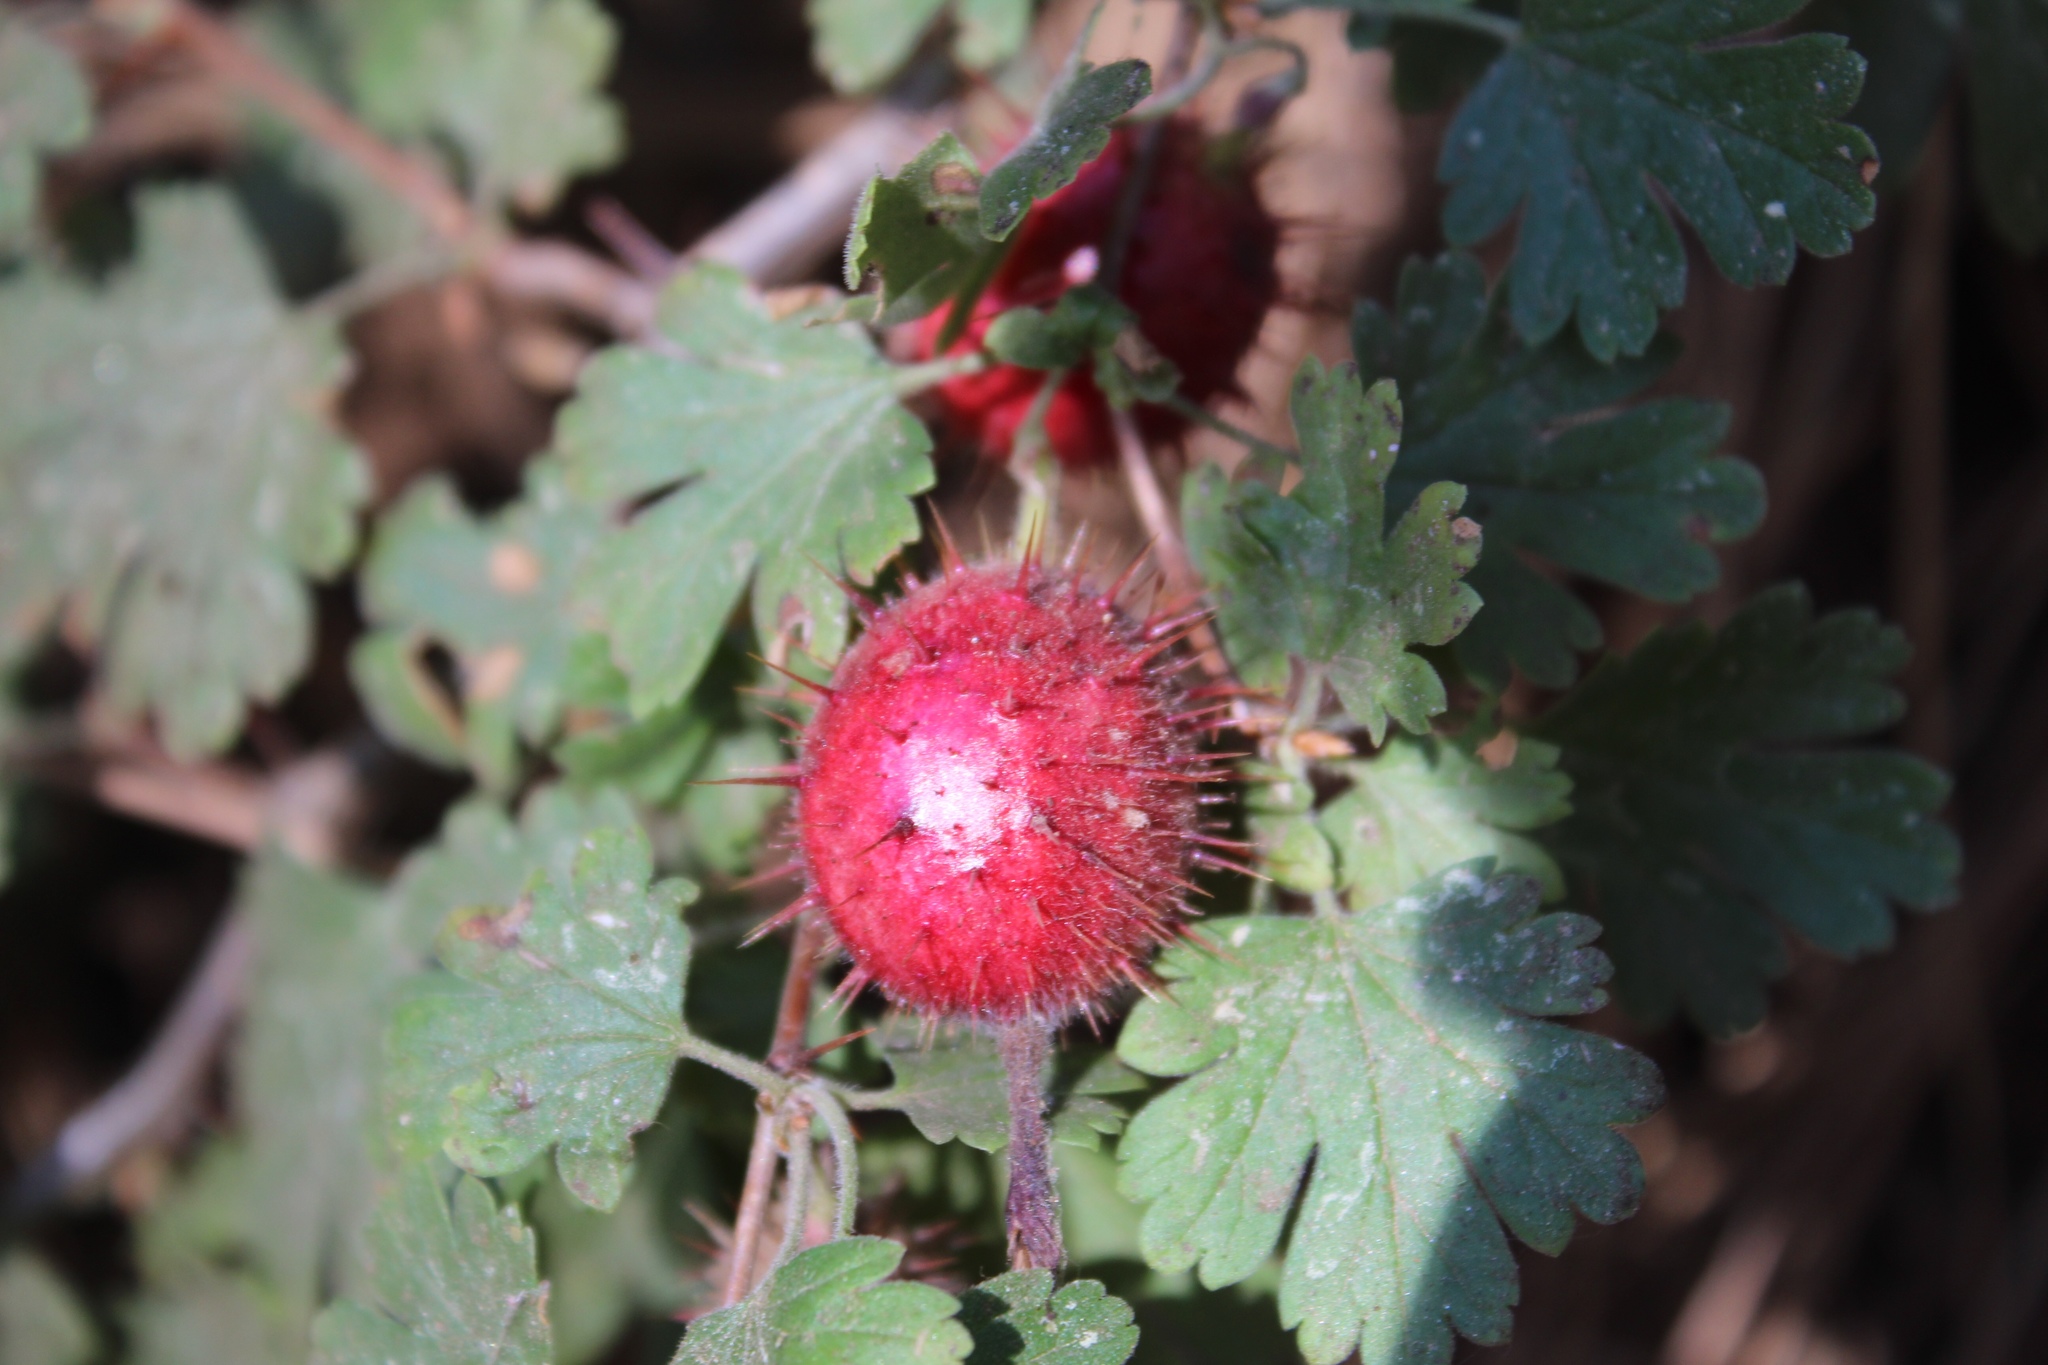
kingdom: Plantae
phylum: Tracheophyta
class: Magnoliopsida
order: Saxifragales
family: Grossulariaceae
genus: Ribes
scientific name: Ribes roezlii
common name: Sierra gooseberry
